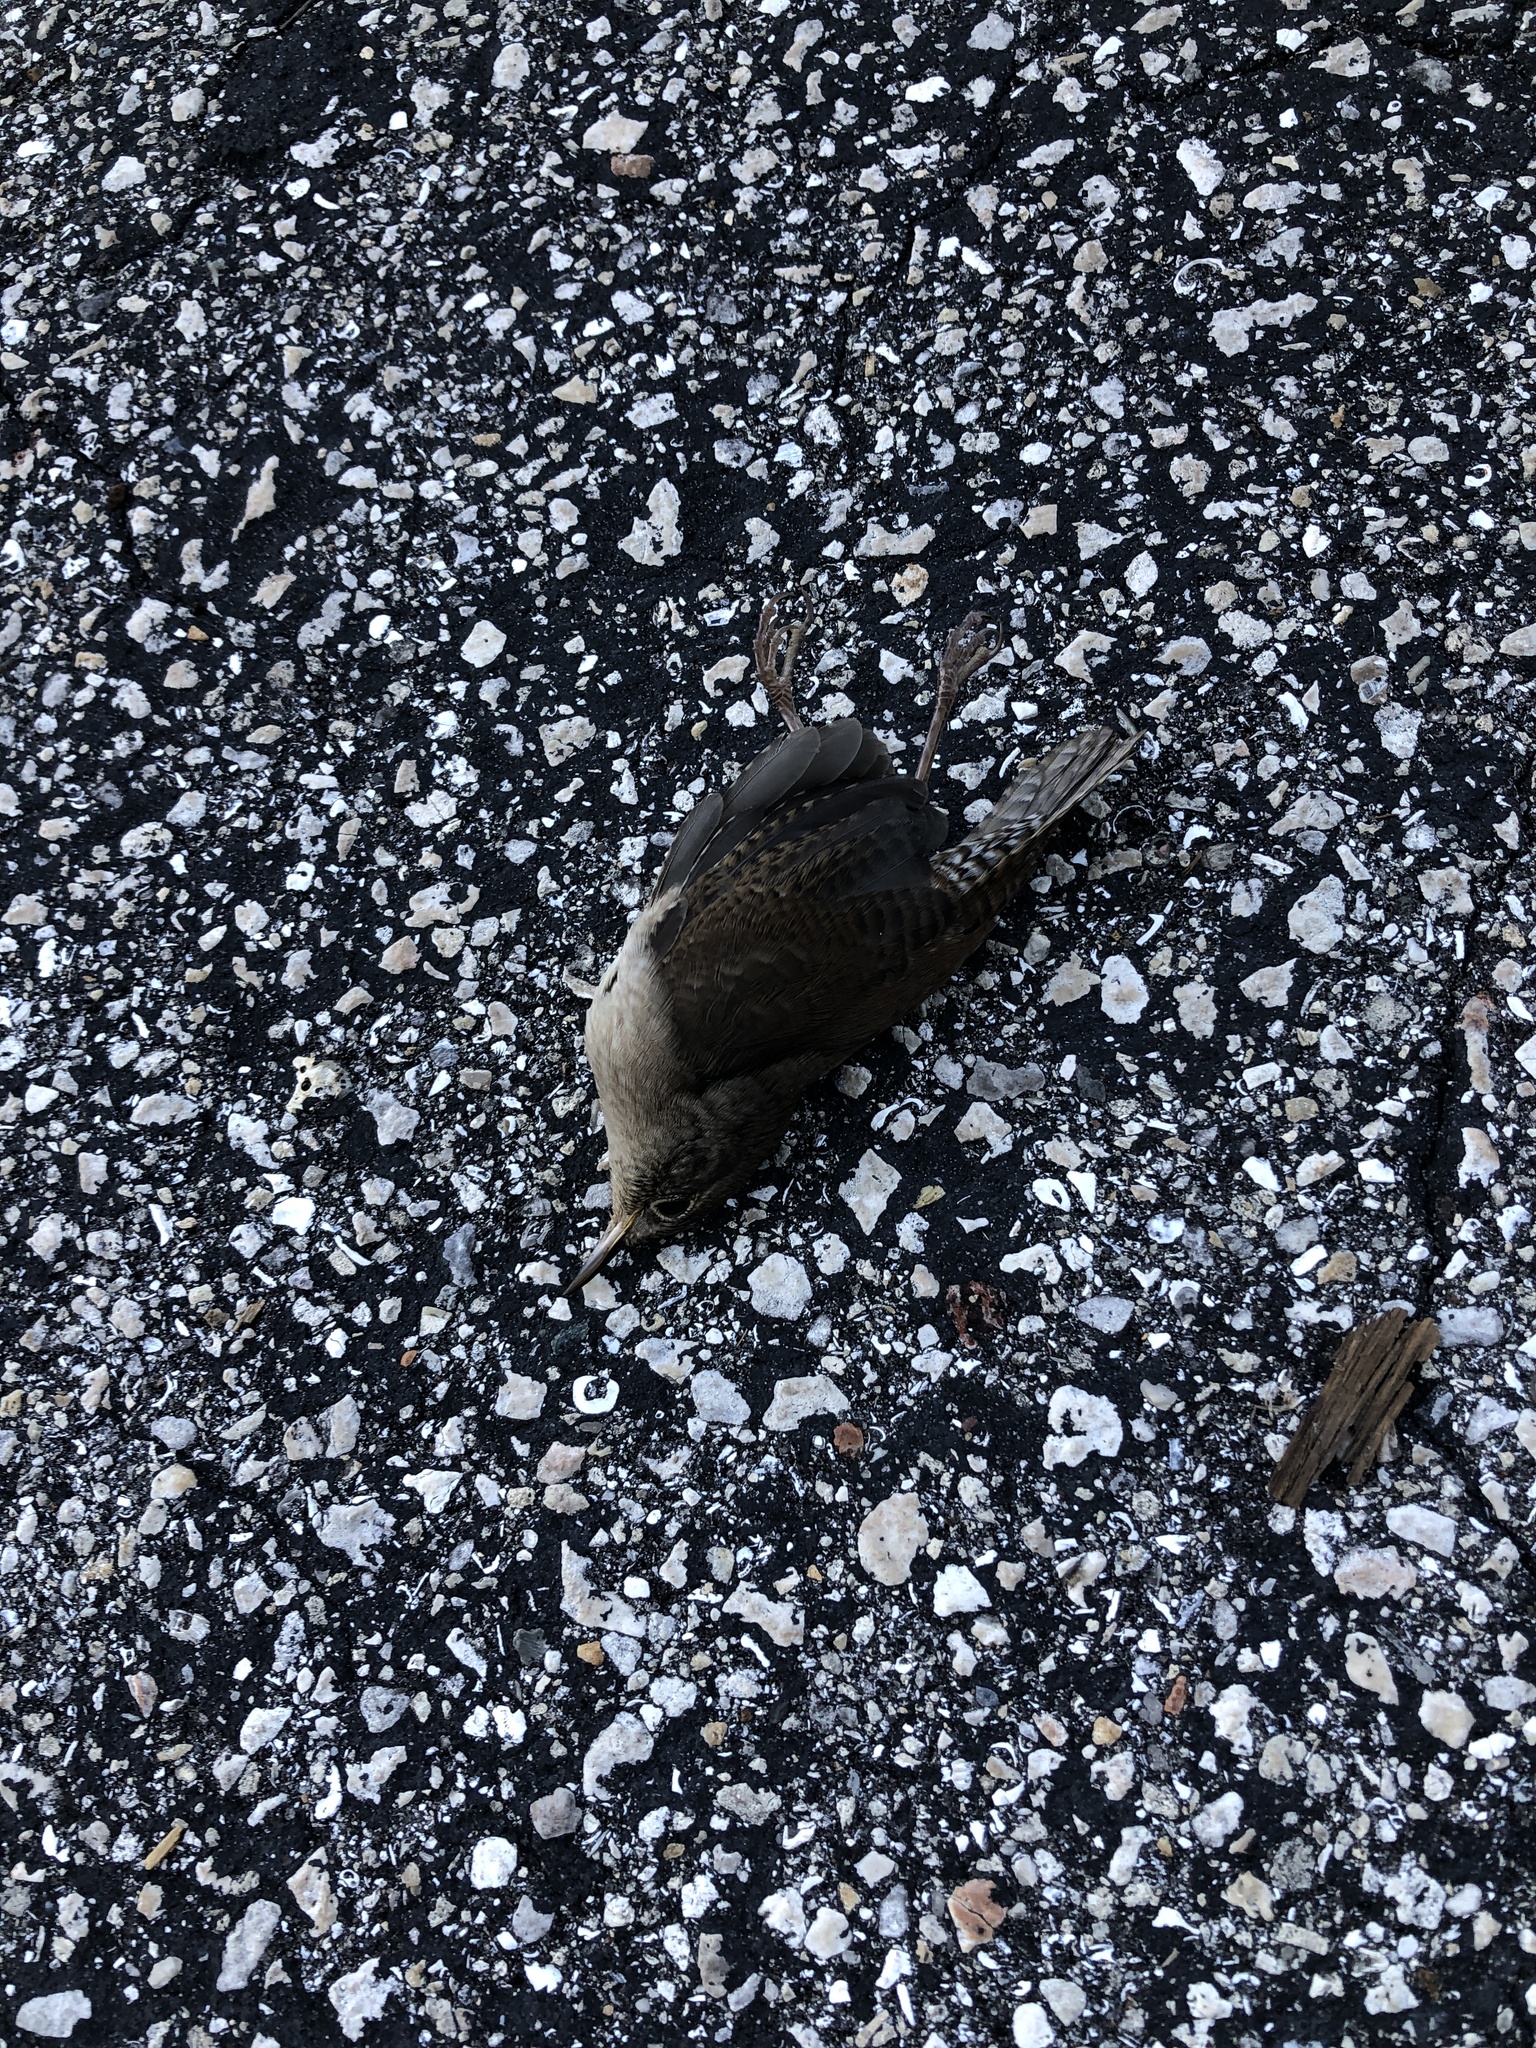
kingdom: Animalia
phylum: Chordata
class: Aves
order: Passeriformes
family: Troglodytidae
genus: Troglodytes
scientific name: Troglodytes aedon
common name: House wren
